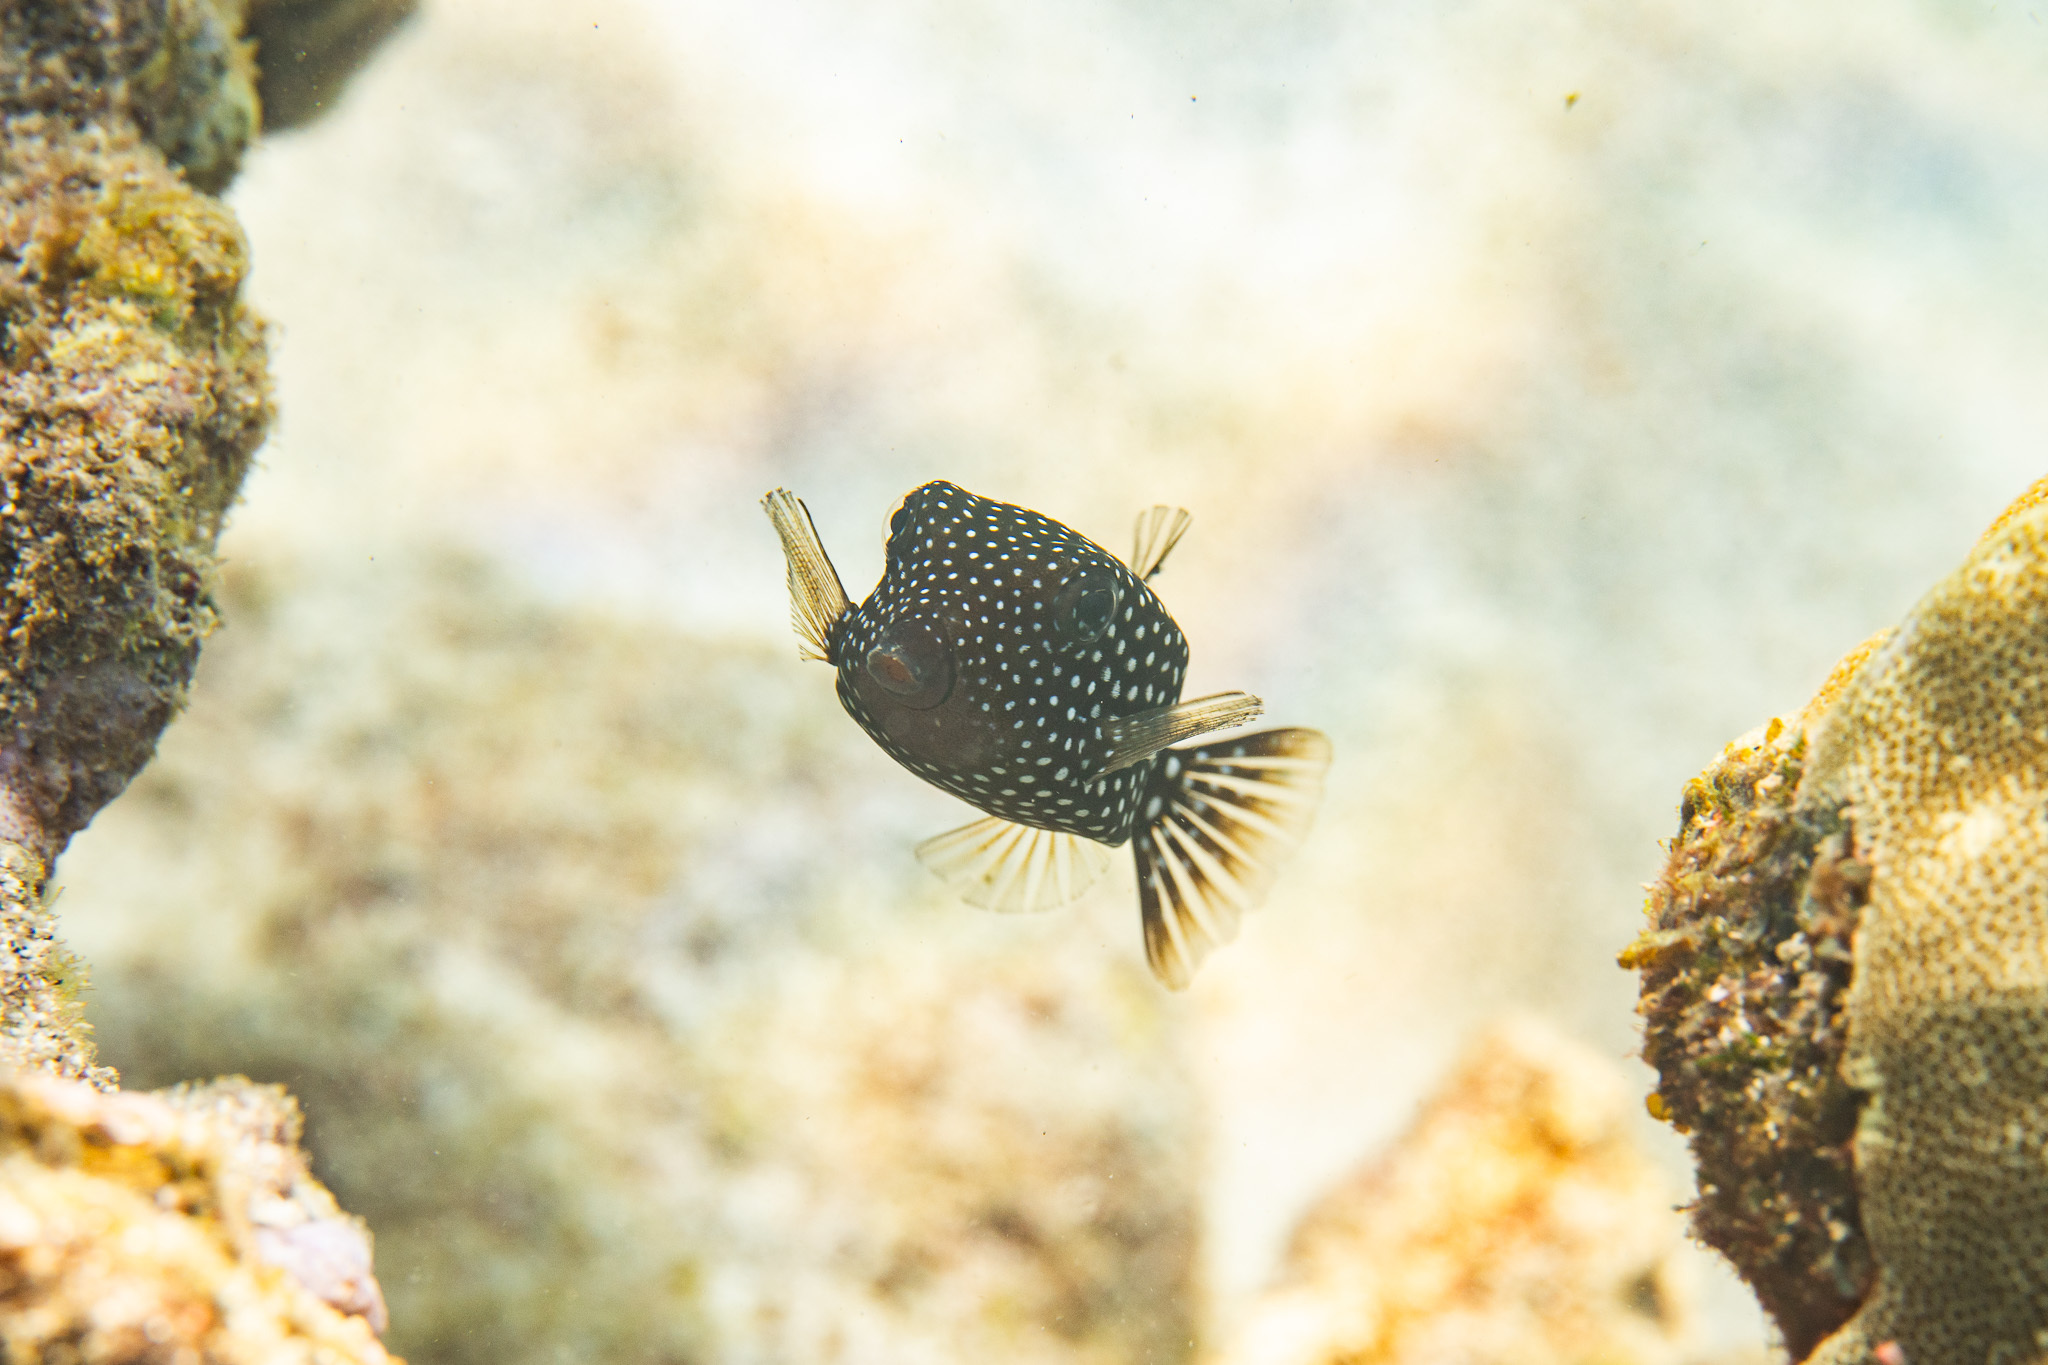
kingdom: Animalia
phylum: Chordata
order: Tetraodontiformes
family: Ostraciidae
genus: Ostracion
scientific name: Ostracion meleagris
